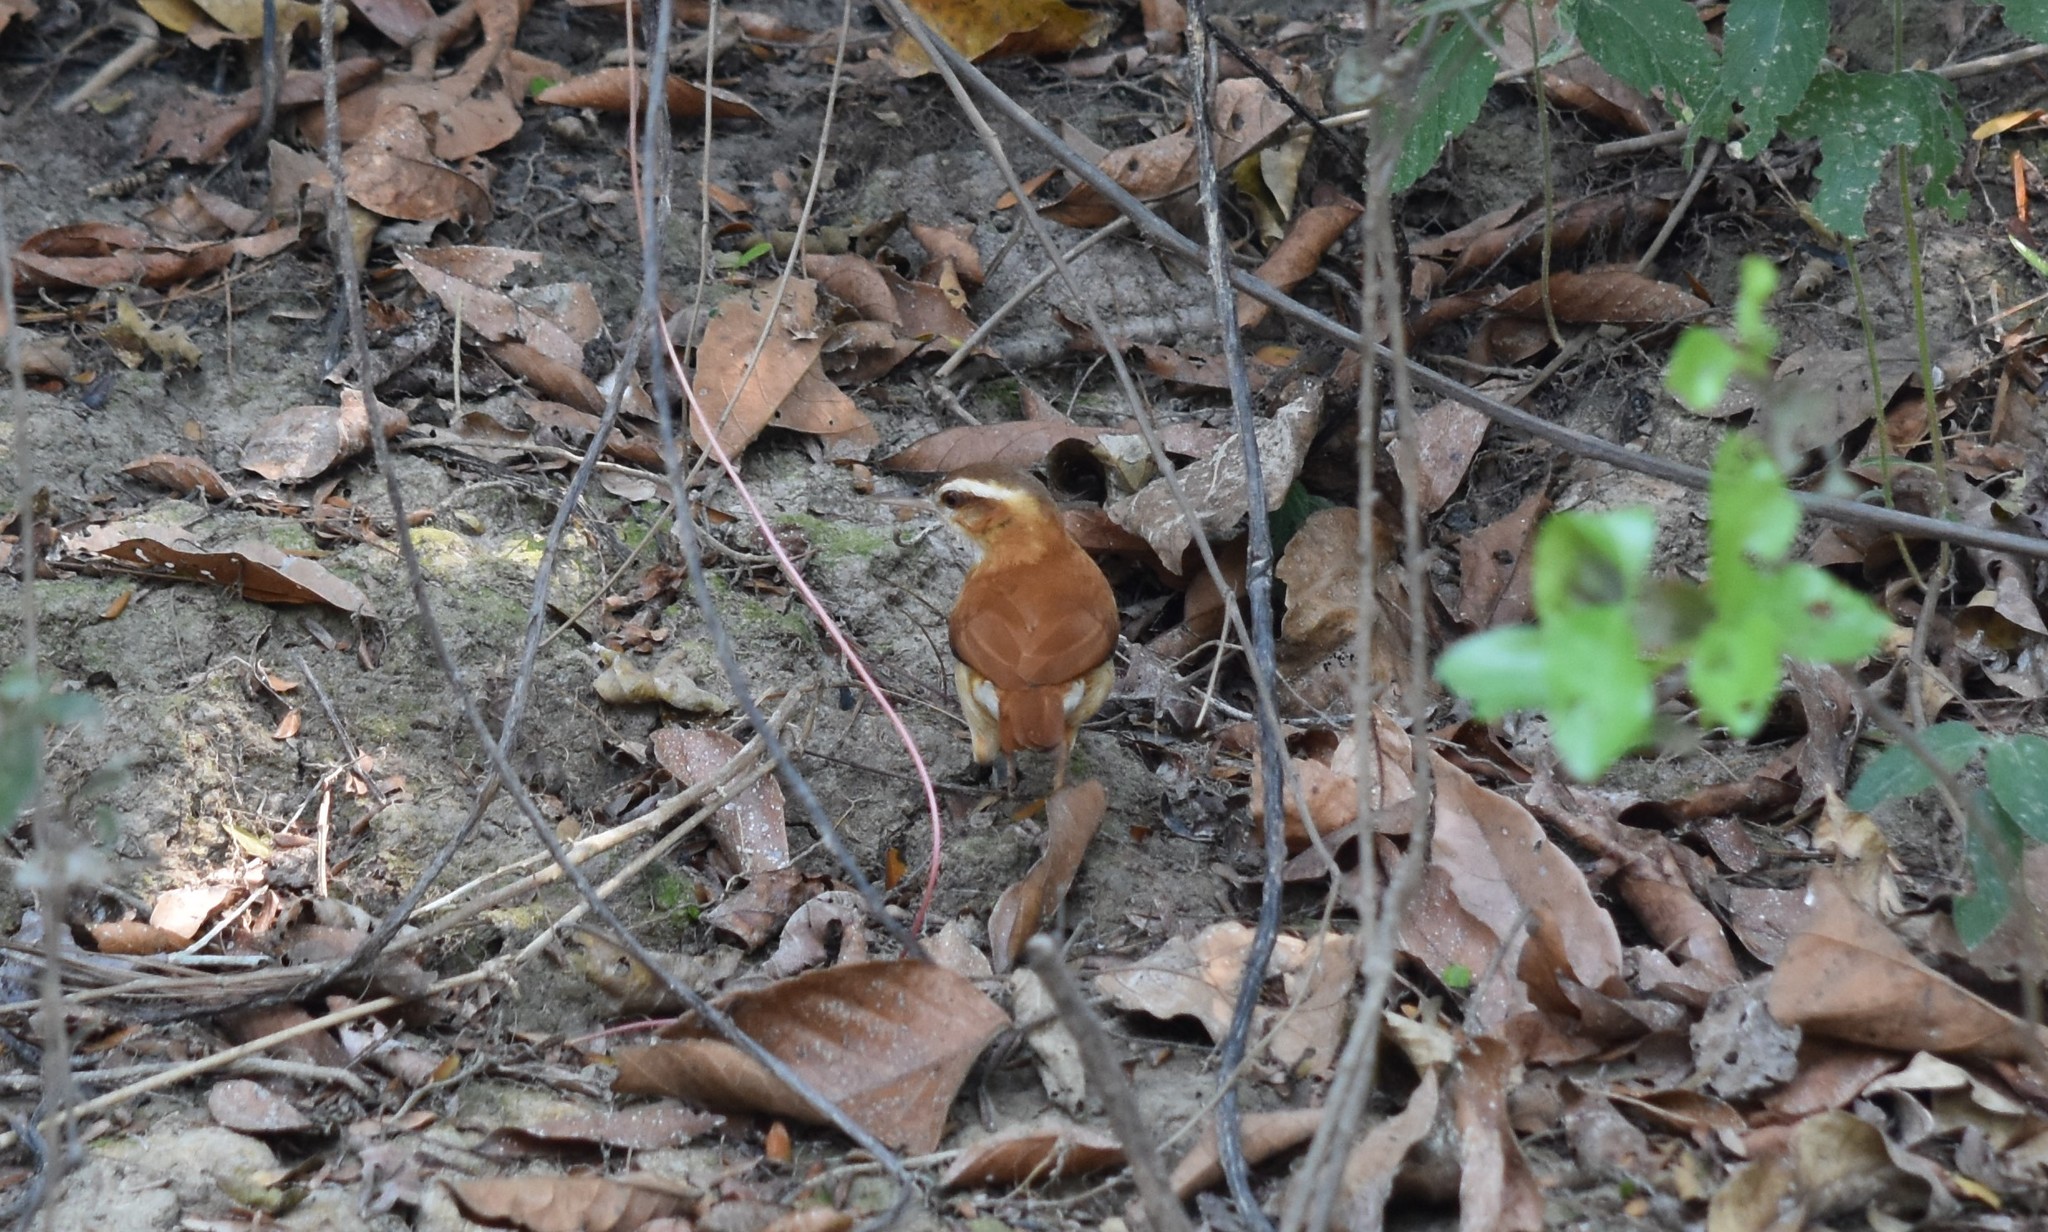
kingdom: Animalia
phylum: Chordata
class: Aves
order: Passeriformes
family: Furnariidae
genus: Furnarius
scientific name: Furnarius leucopus
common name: Pale-legged hornero
